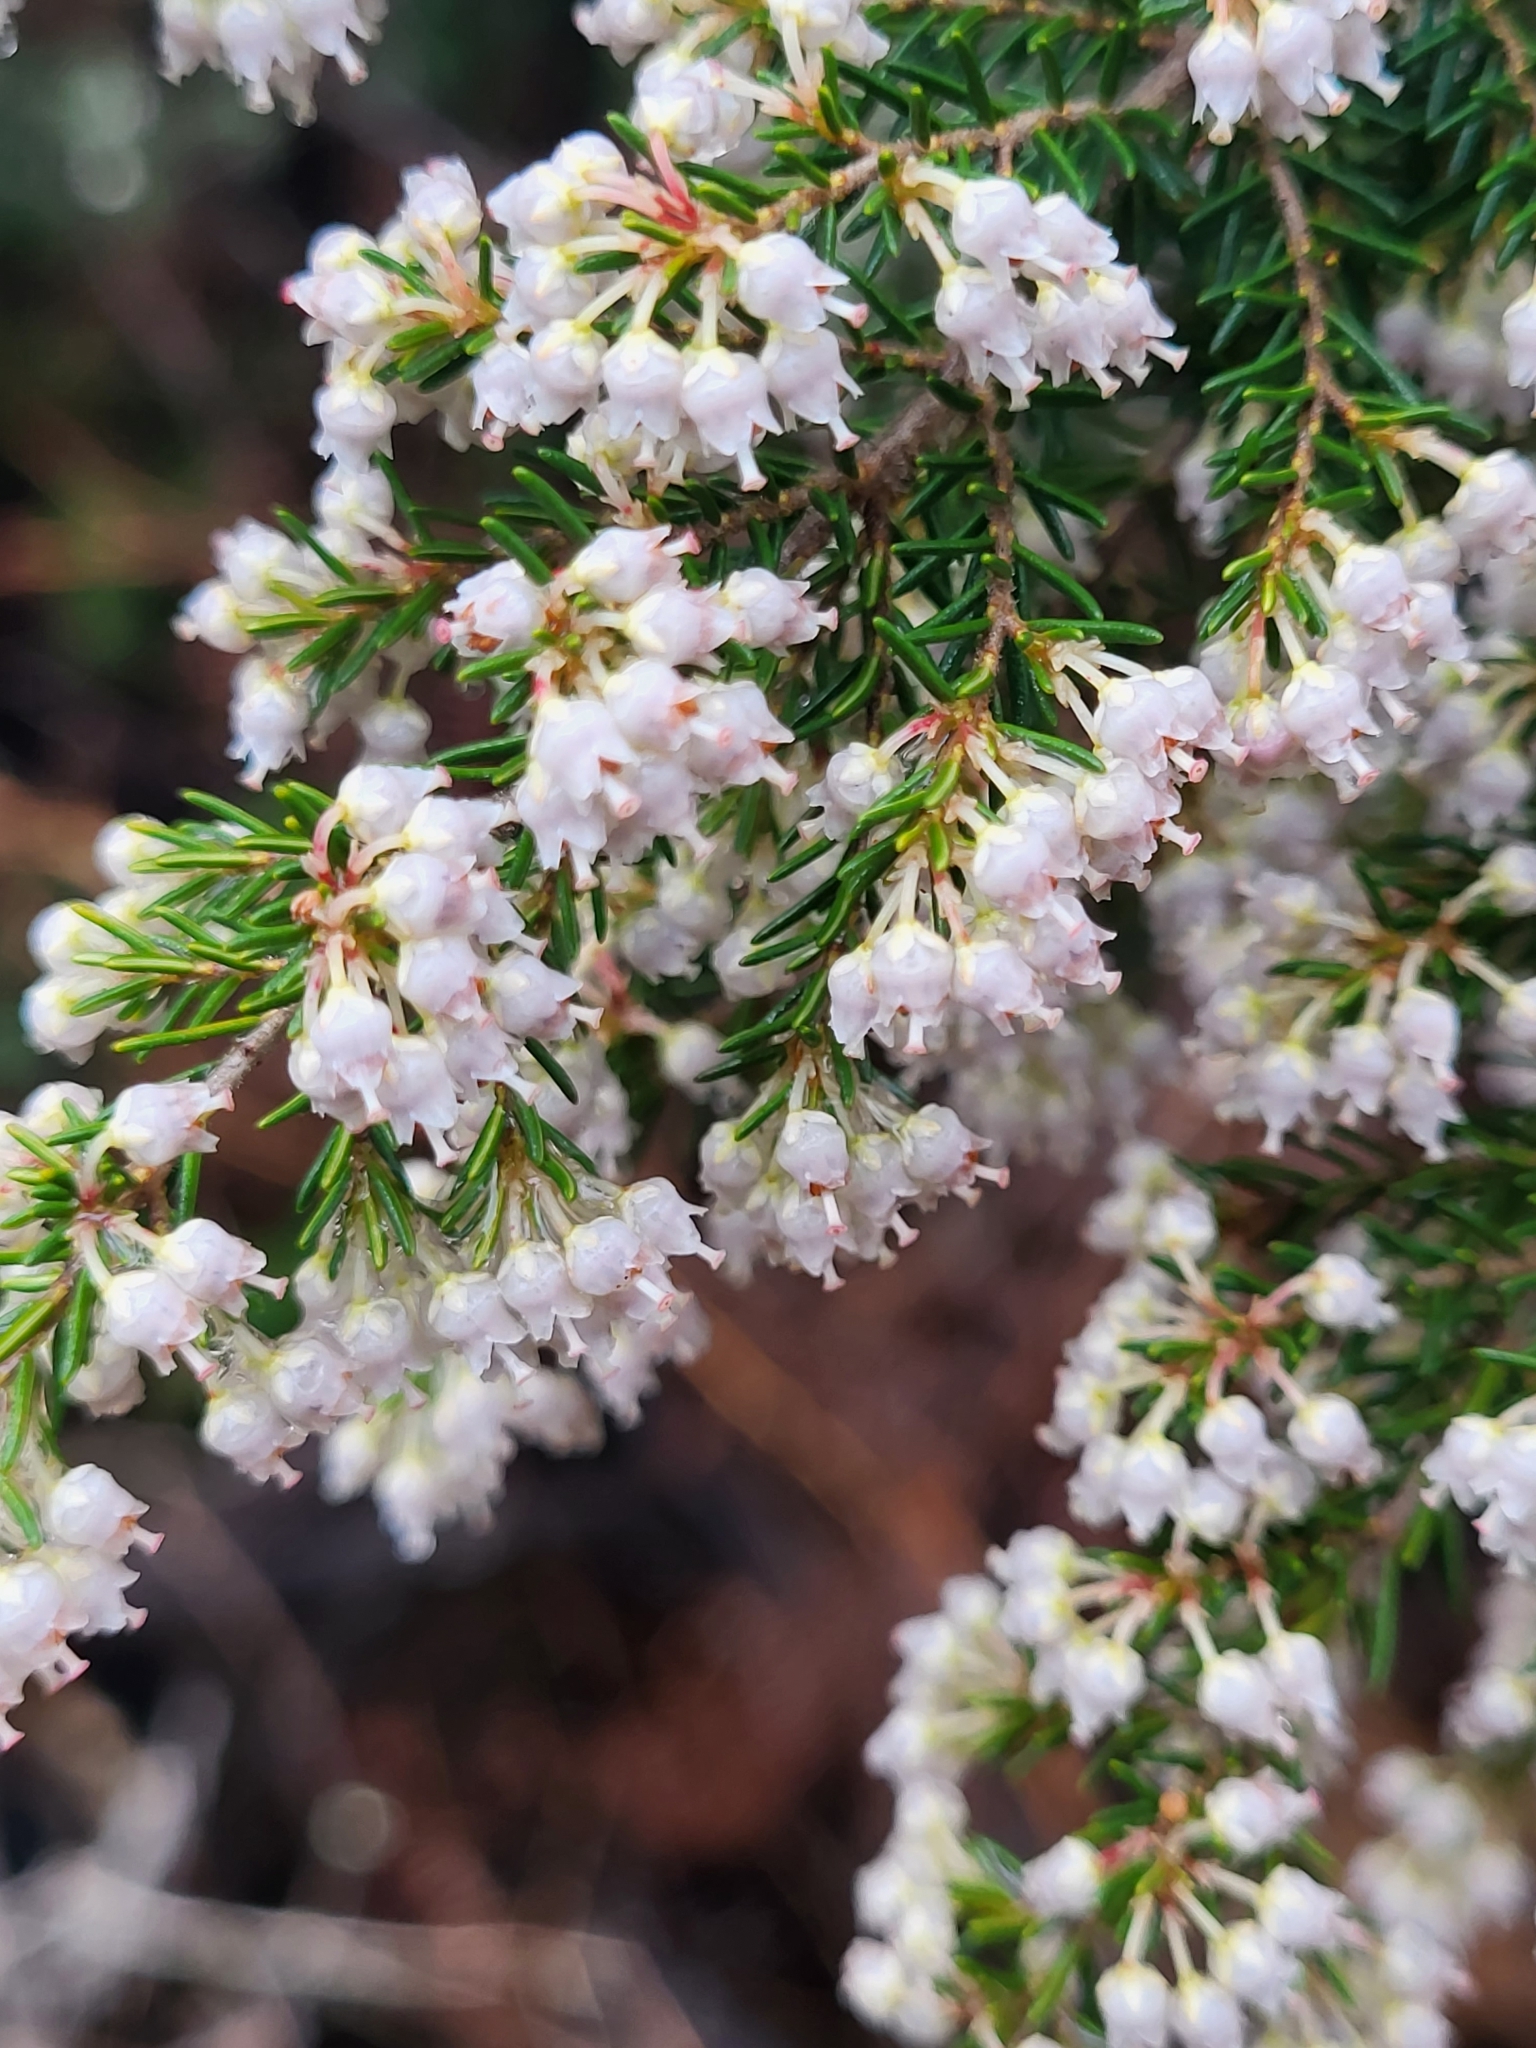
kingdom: Plantae
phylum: Tracheophyta
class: Magnoliopsida
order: Ericales
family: Ericaceae
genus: Erica
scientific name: Erica canariensis
